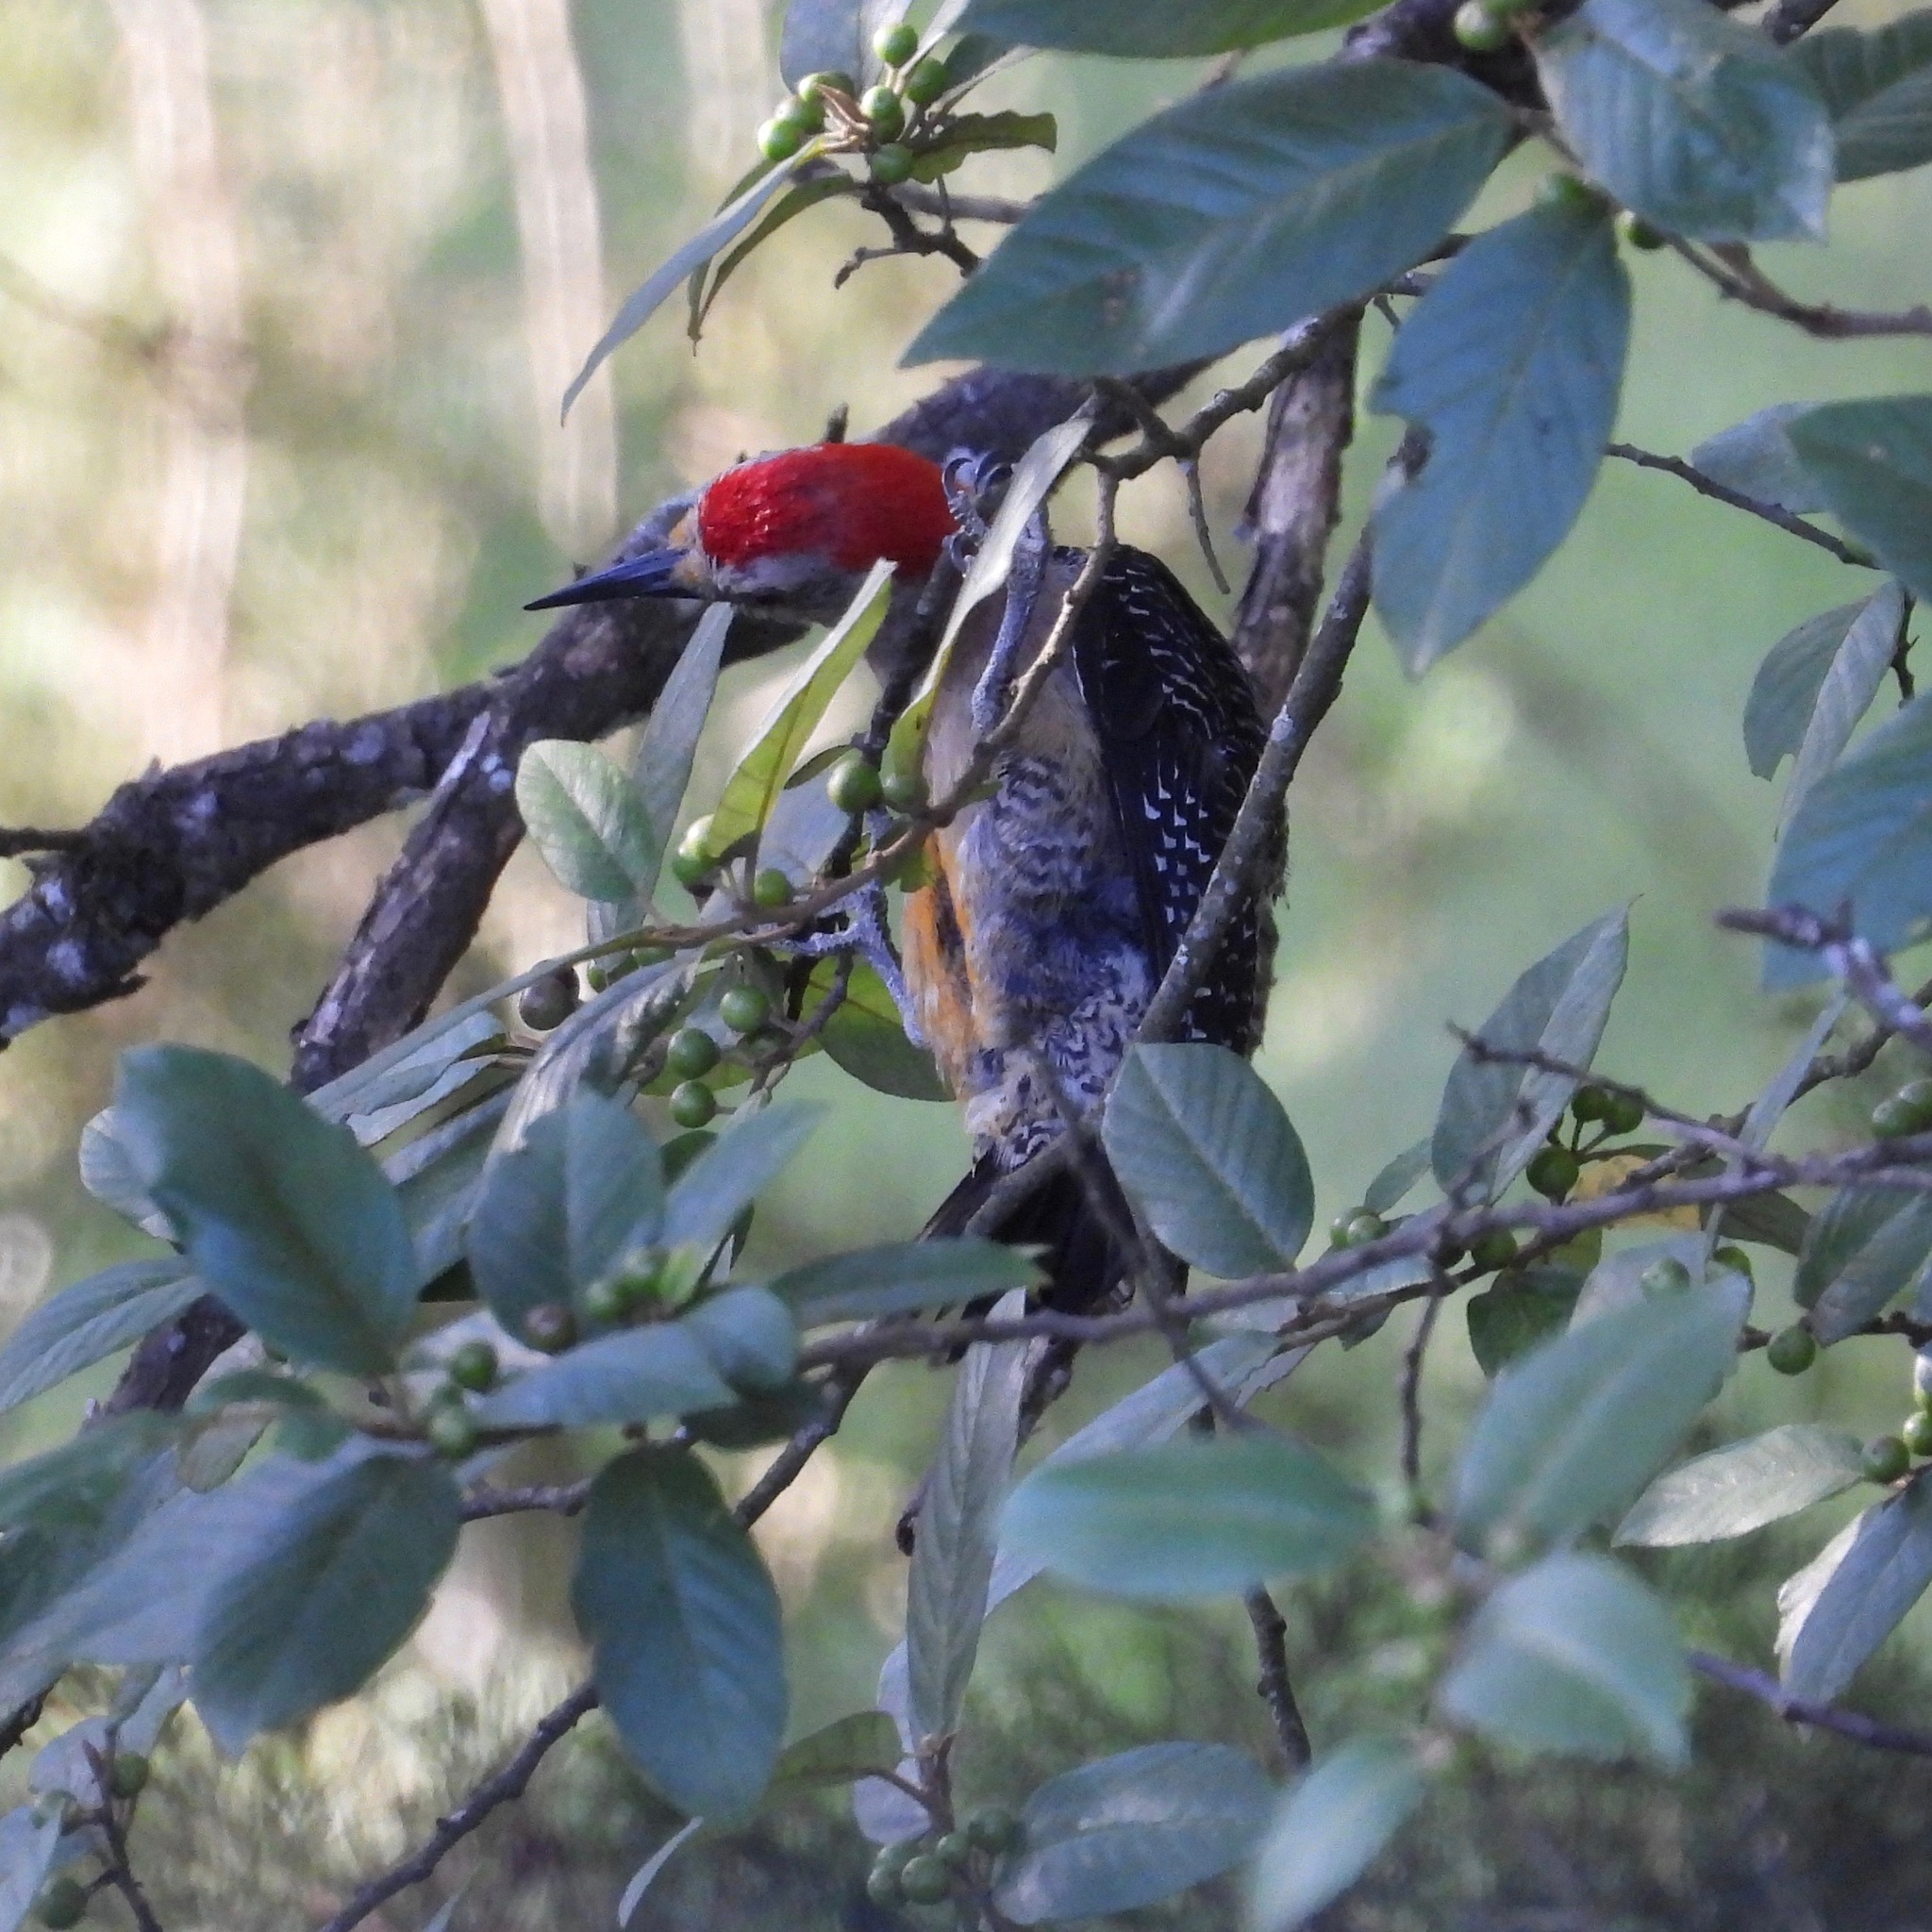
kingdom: Animalia
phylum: Chordata
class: Aves
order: Piciformes
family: Picidae
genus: Melanerpes
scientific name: Melanerpes aurifrons
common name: Golden-fronted woodpecker
